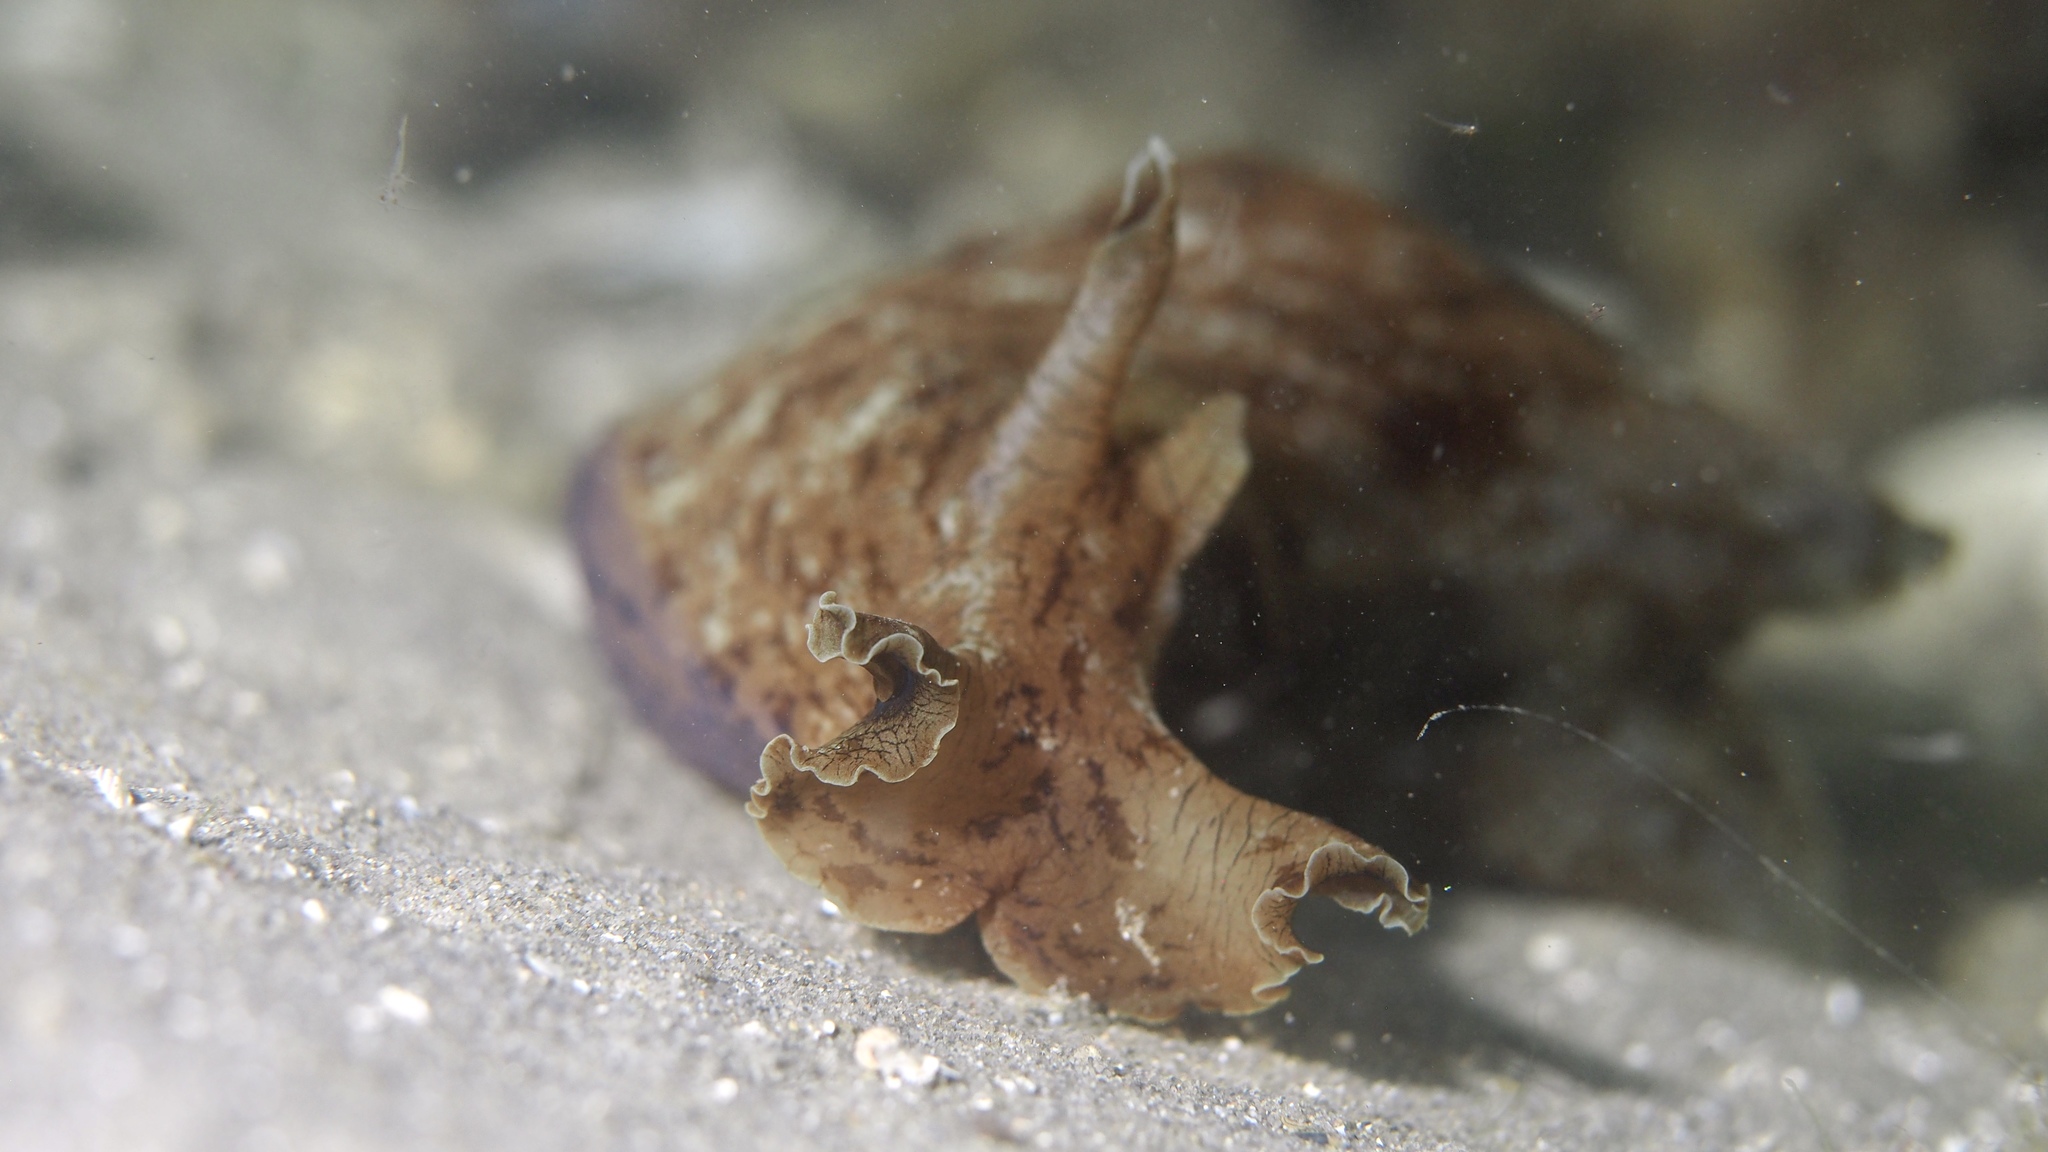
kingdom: Animalia
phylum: Mollusca
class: Gastropoda
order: Aplysiida
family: Aplysiidae
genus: Aplysia
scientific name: Aplysia sowerbyi
